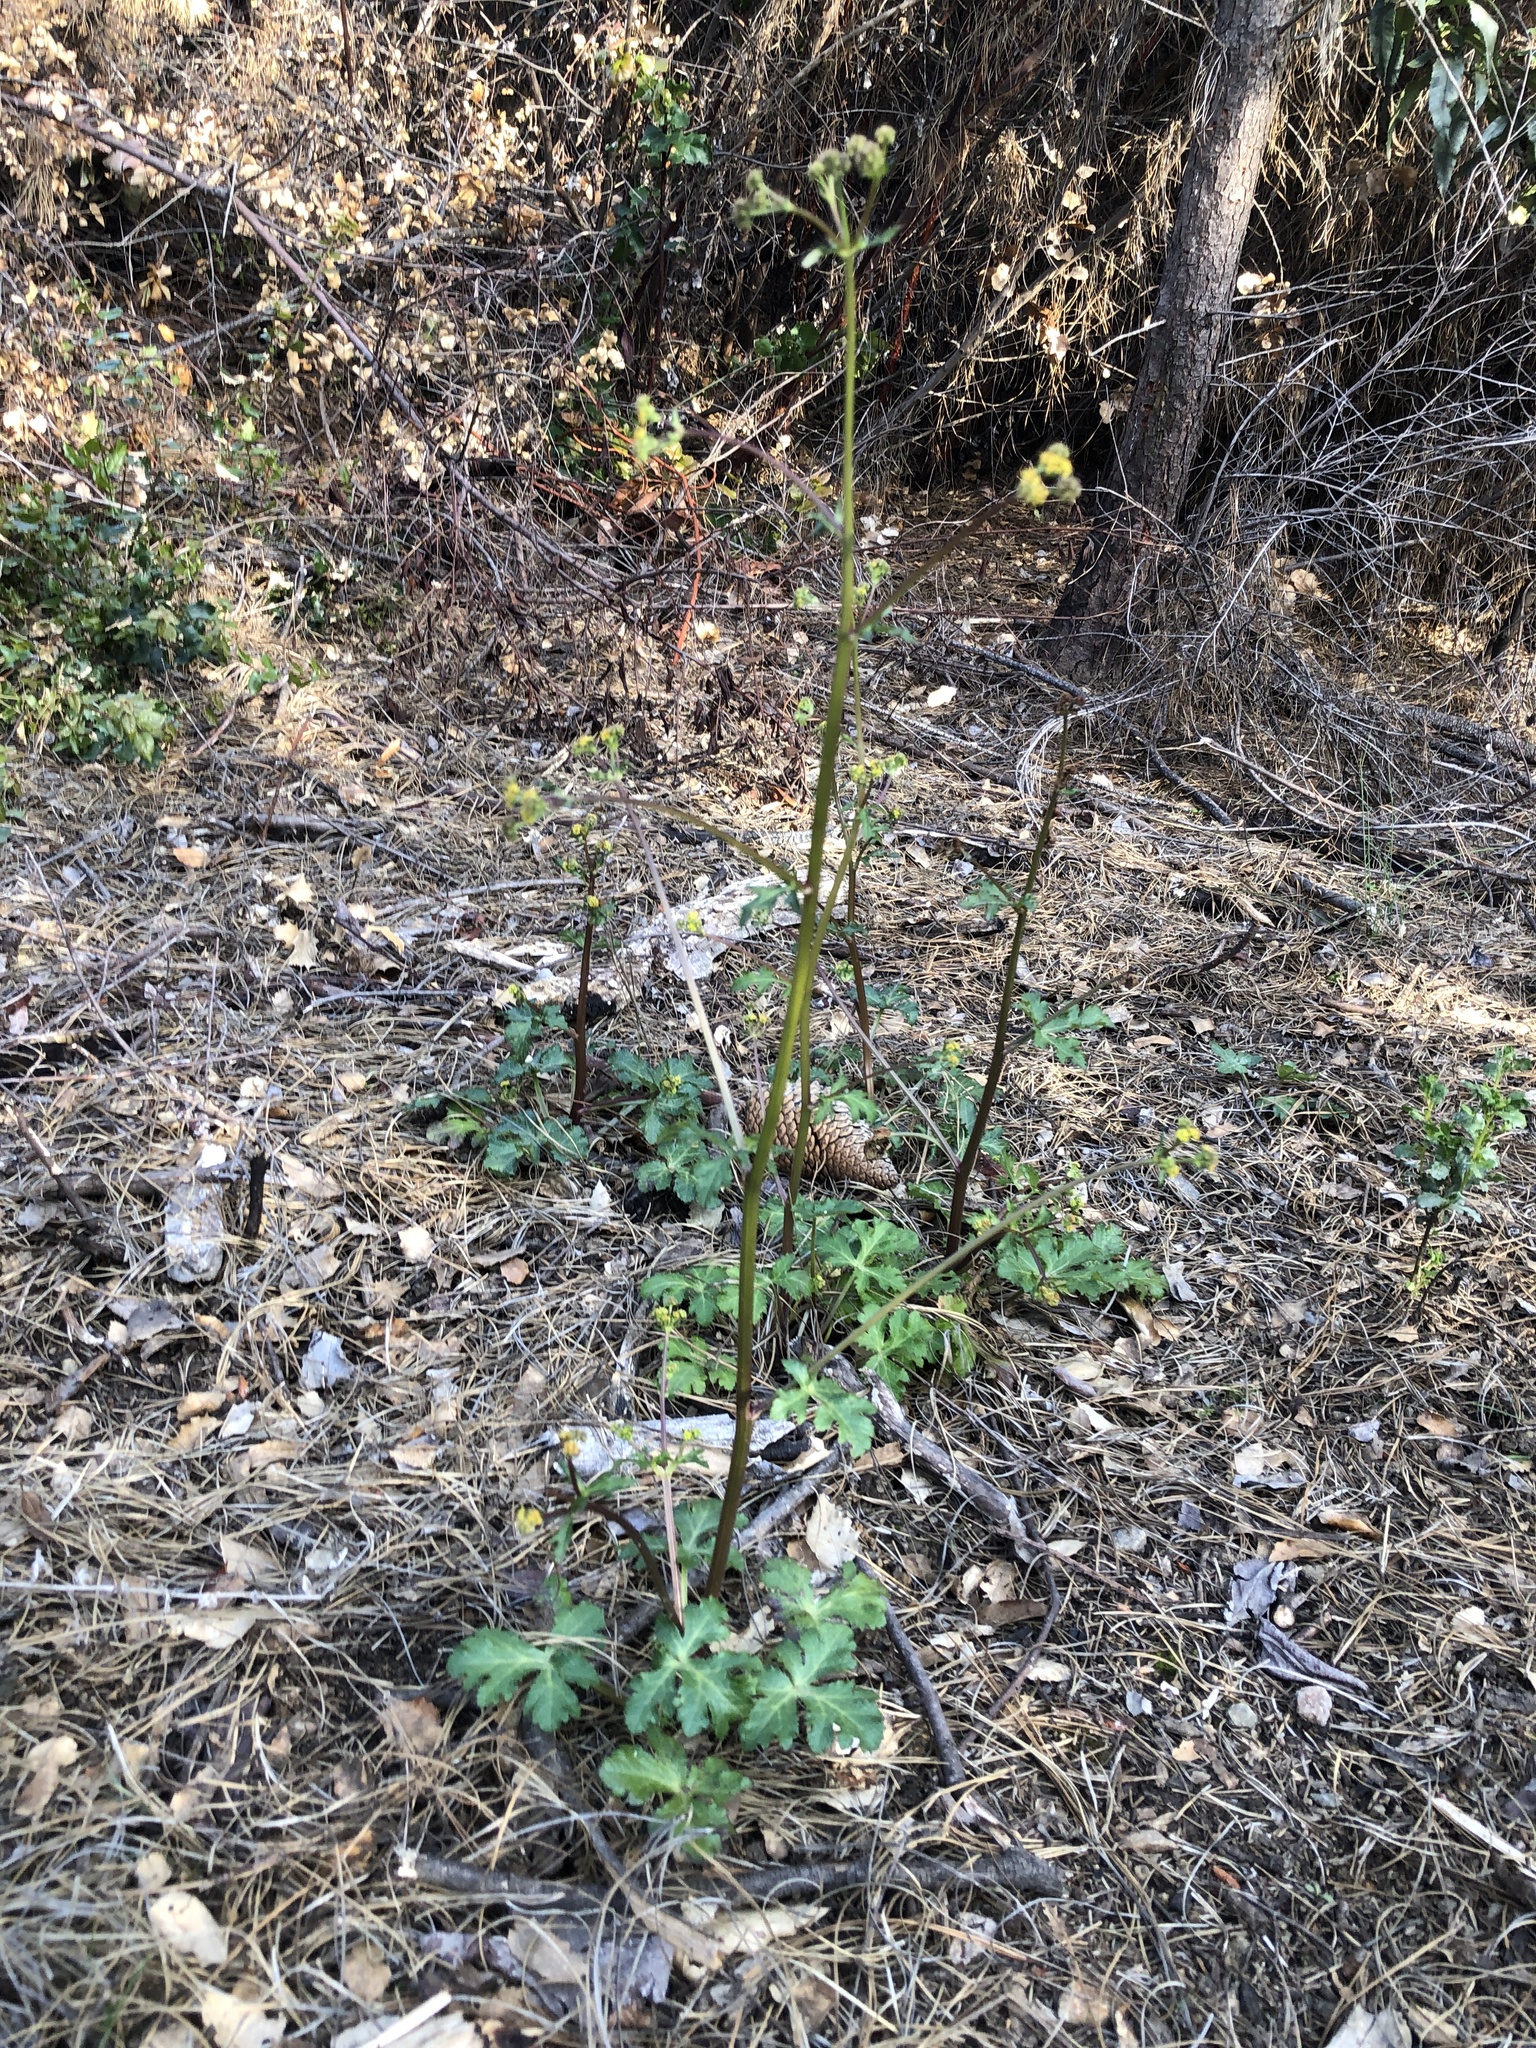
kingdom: Plantae
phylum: Tracheophyta
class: Magnoliopsida
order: Apiales
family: Apiaceae
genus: Sanicula
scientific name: Sanicula crassicaulis
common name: Western snakeroot
